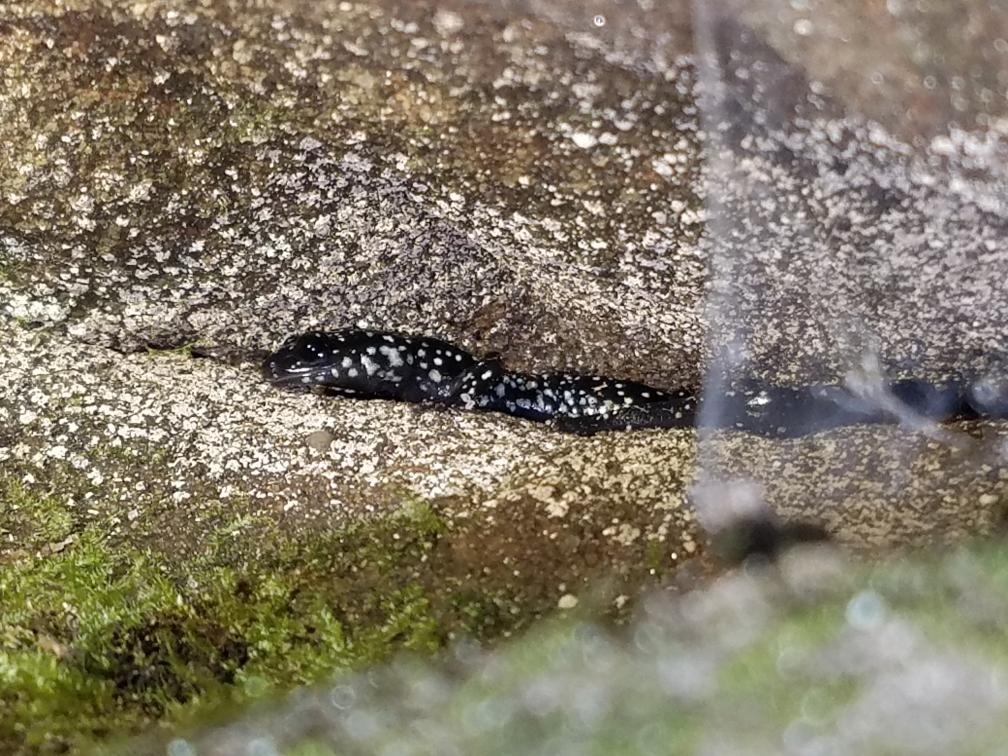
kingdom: Animalia
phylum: Chordata
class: Amphibia
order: Caudata
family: Plethodontidae
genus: Plethodon
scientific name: Plethodon glutinosus
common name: Northern slimy salamander
